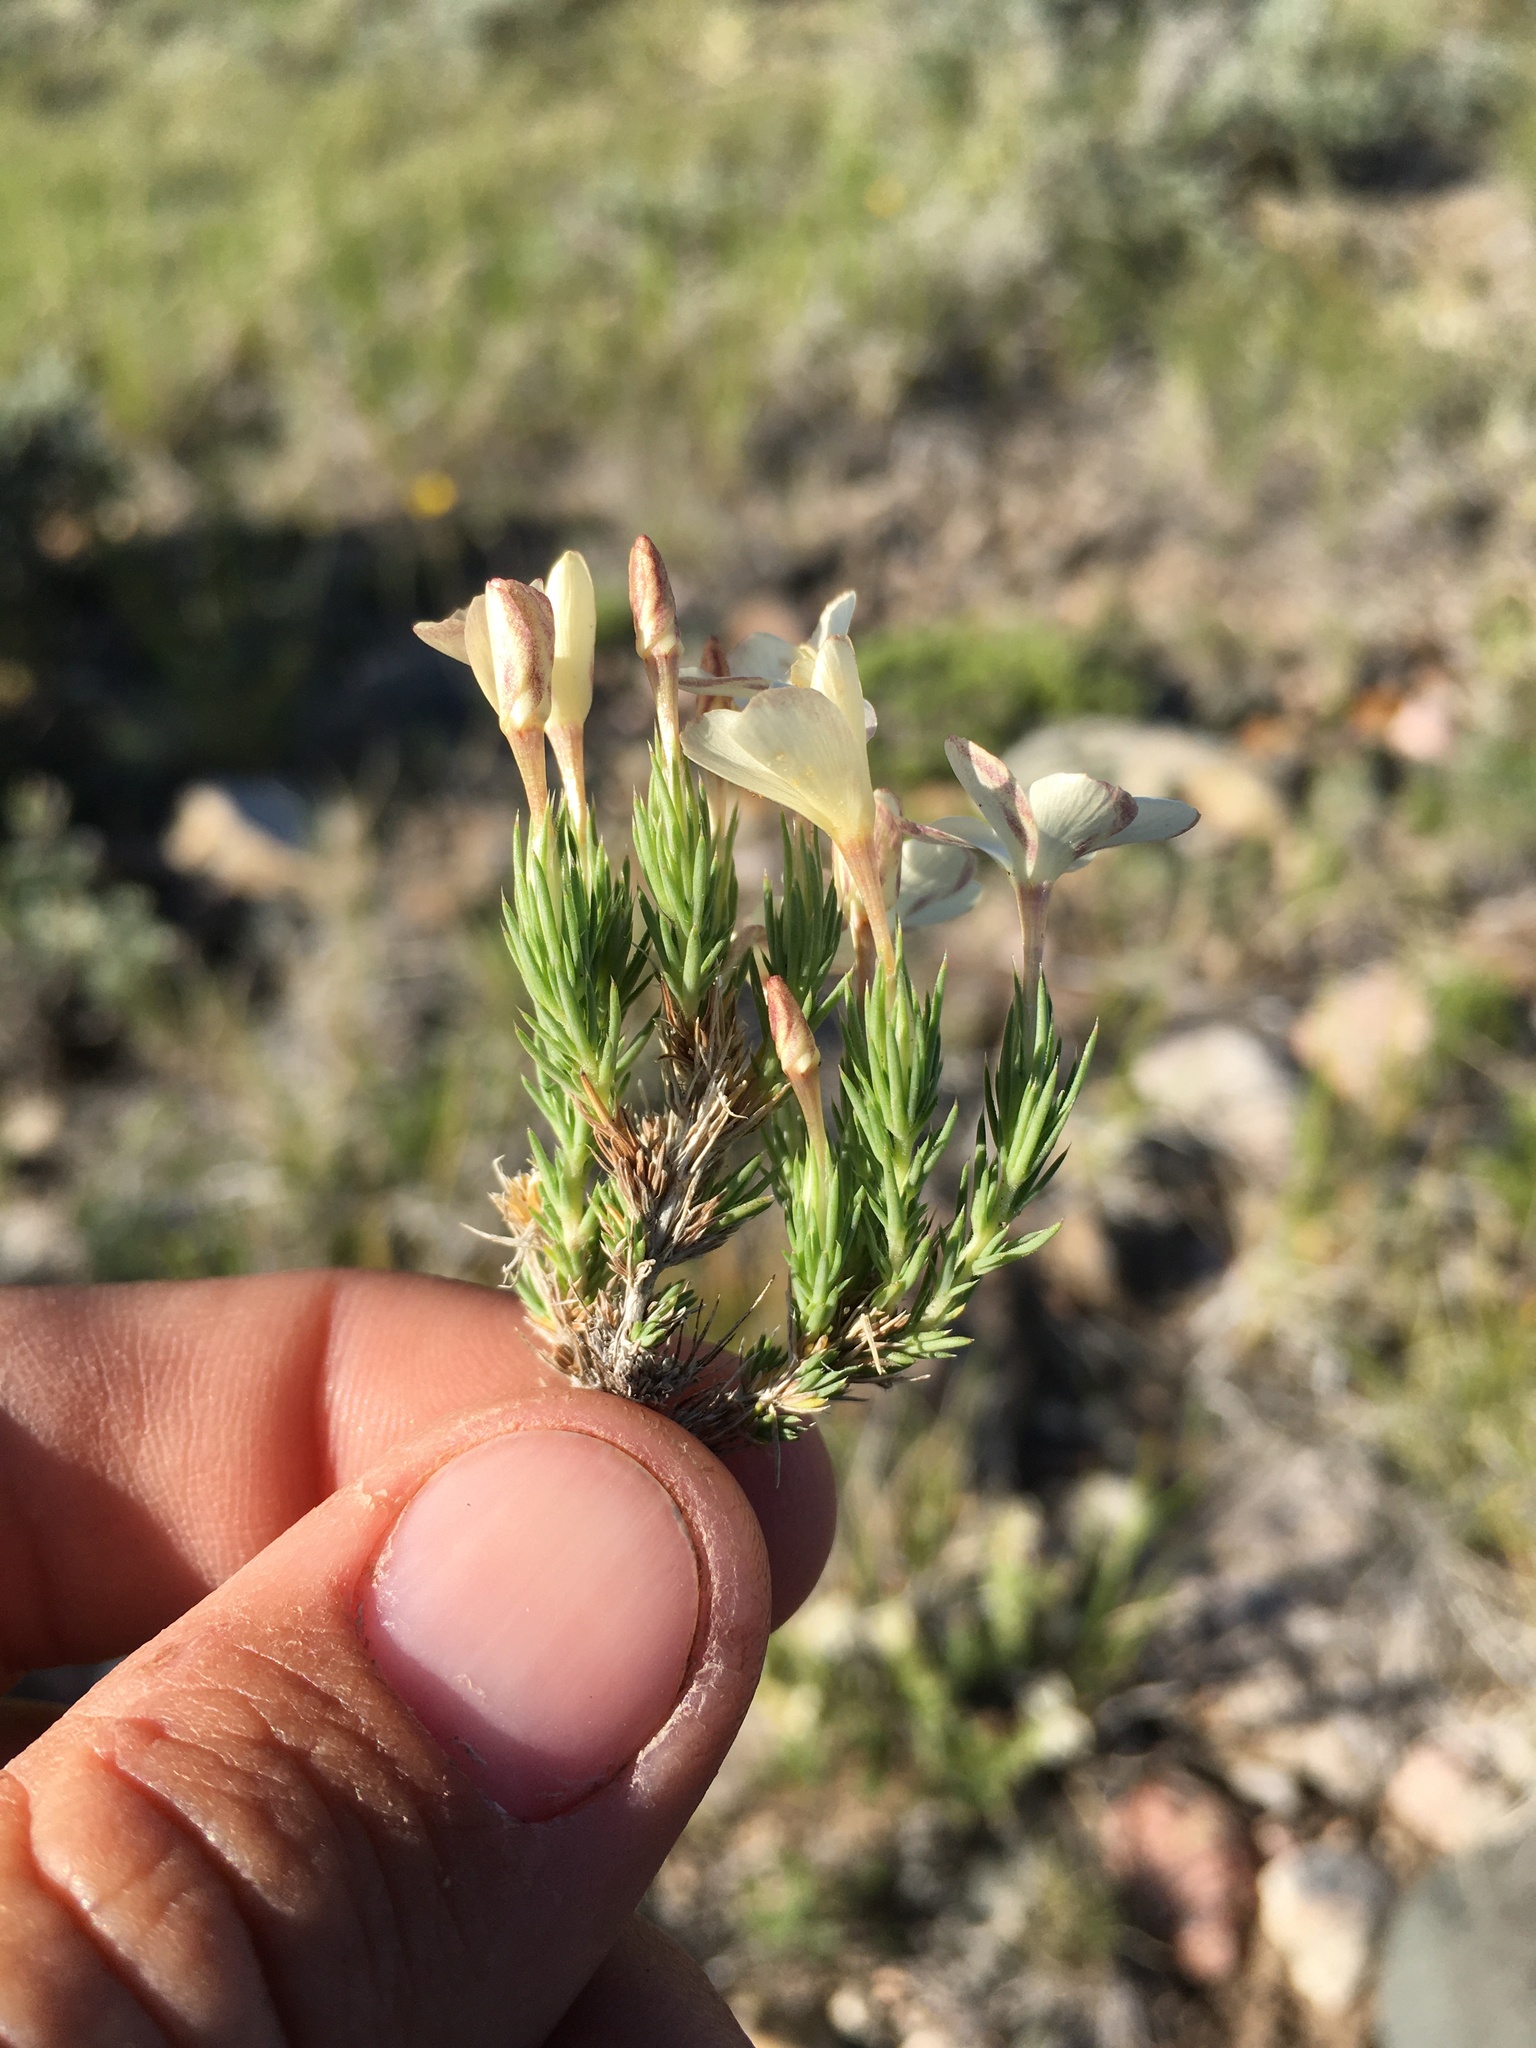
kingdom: Plantae
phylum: Tracheophyta
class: Magnoliopsida
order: Ericales
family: Polemoniaceae
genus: Linanthus
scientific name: Linanthus pungens
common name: Granite prickly phlox
